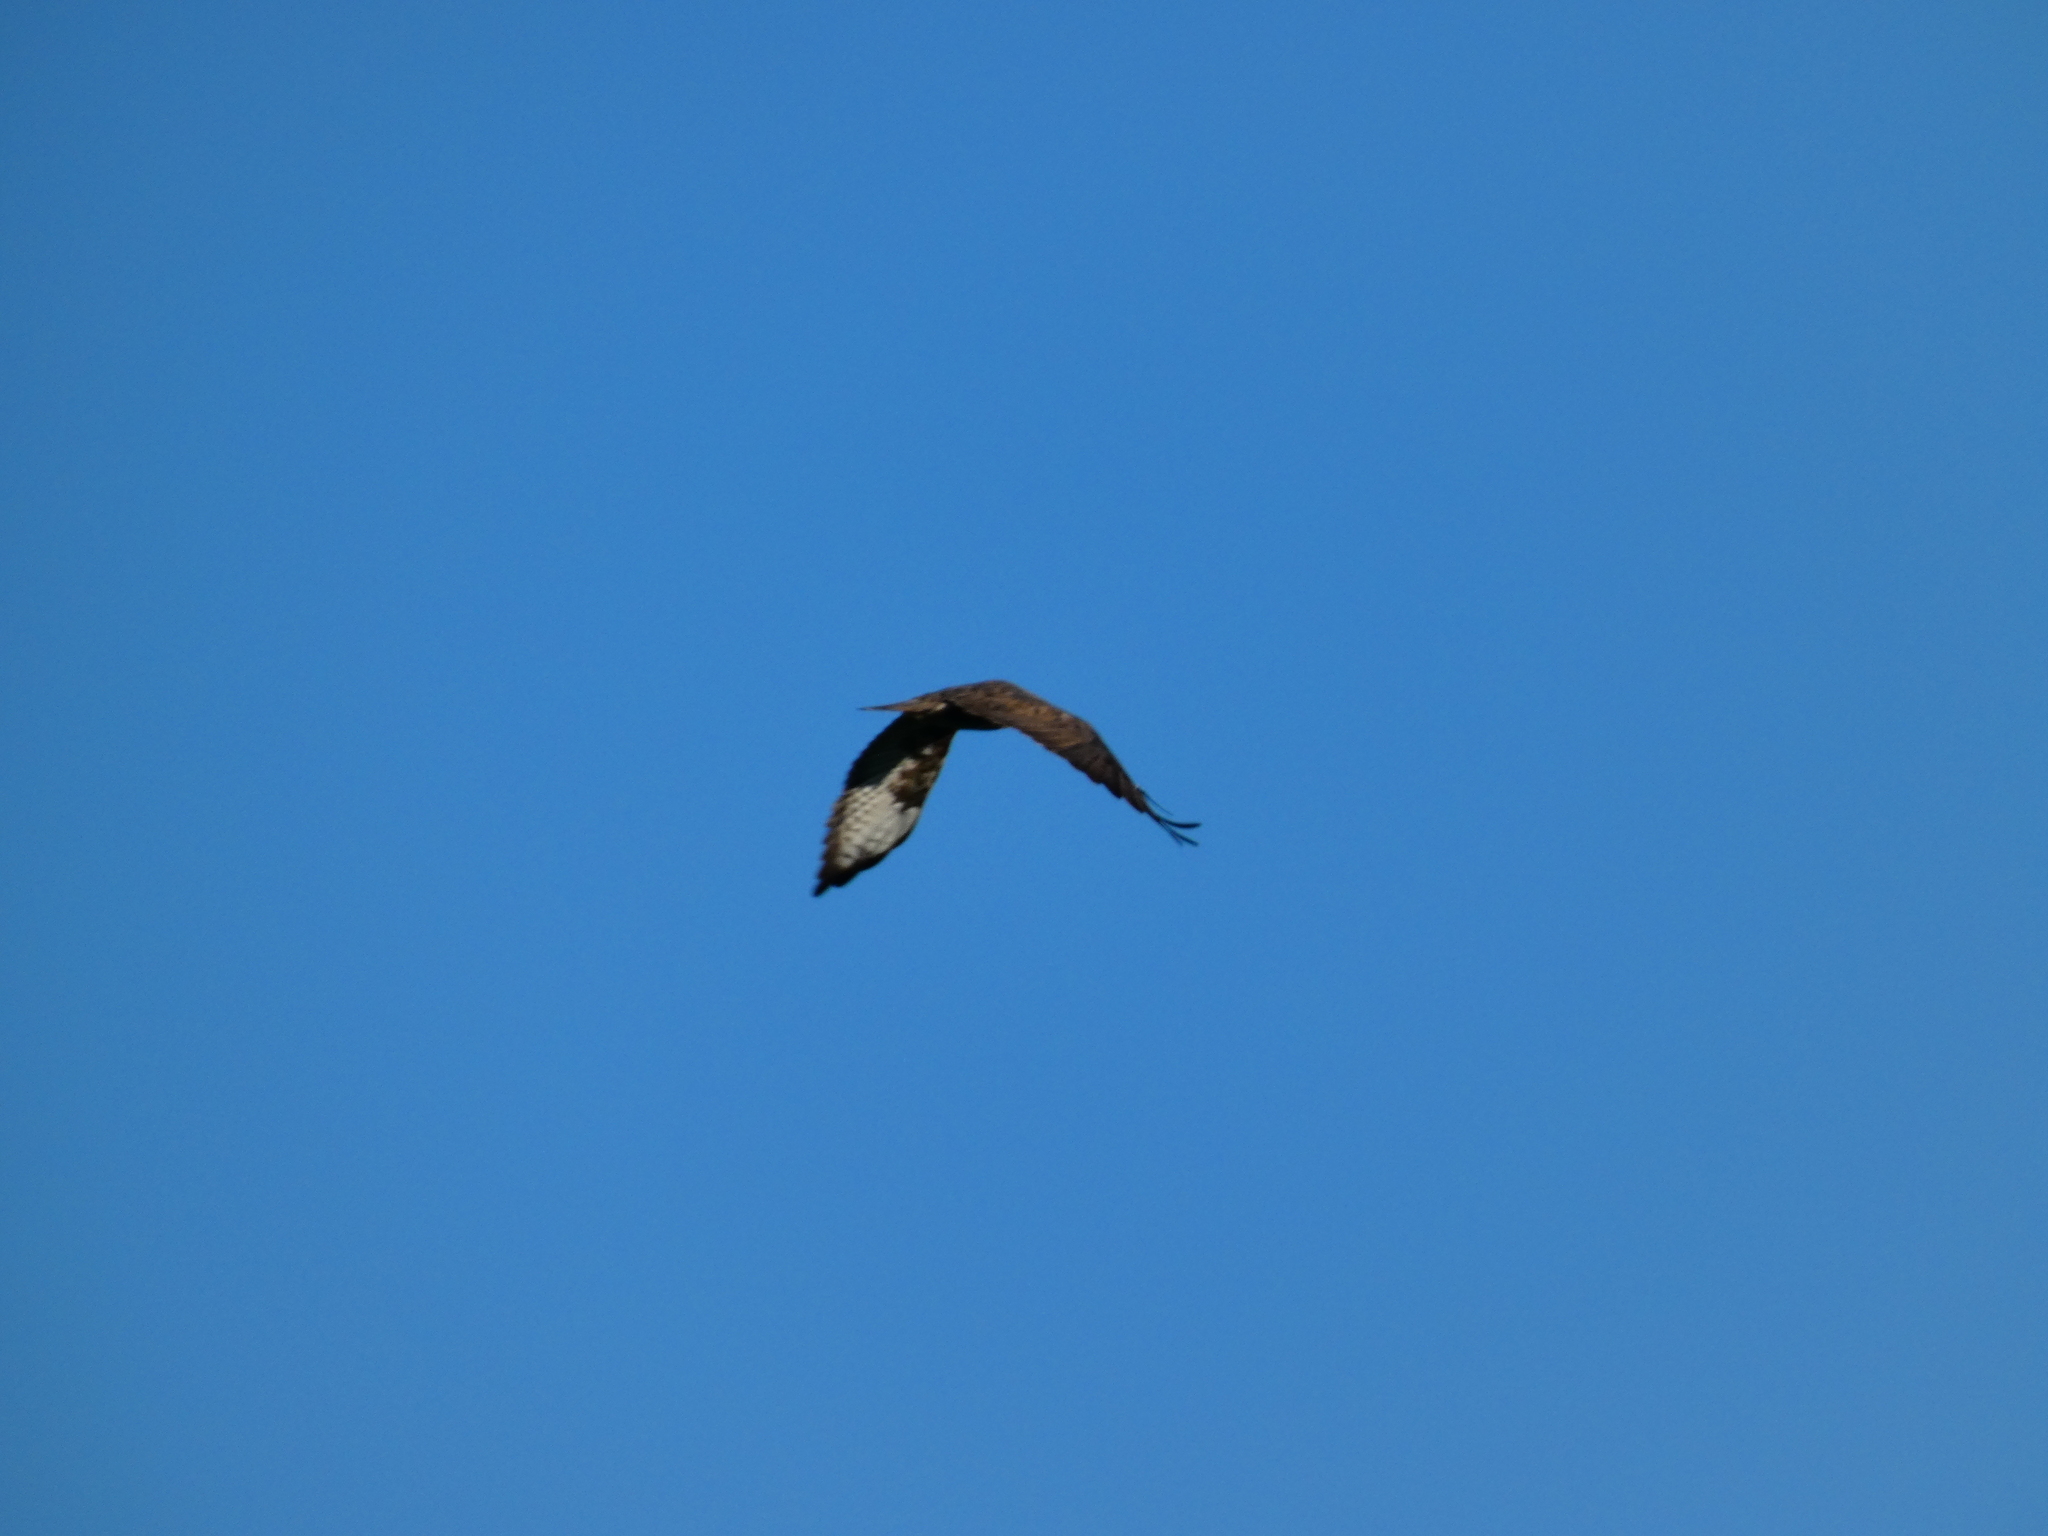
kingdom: Animalia
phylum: Chordata
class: Aves
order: Accipitriformes
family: Accipitridae
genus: Buteo
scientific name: Buteo buteo
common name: Common buzzard
